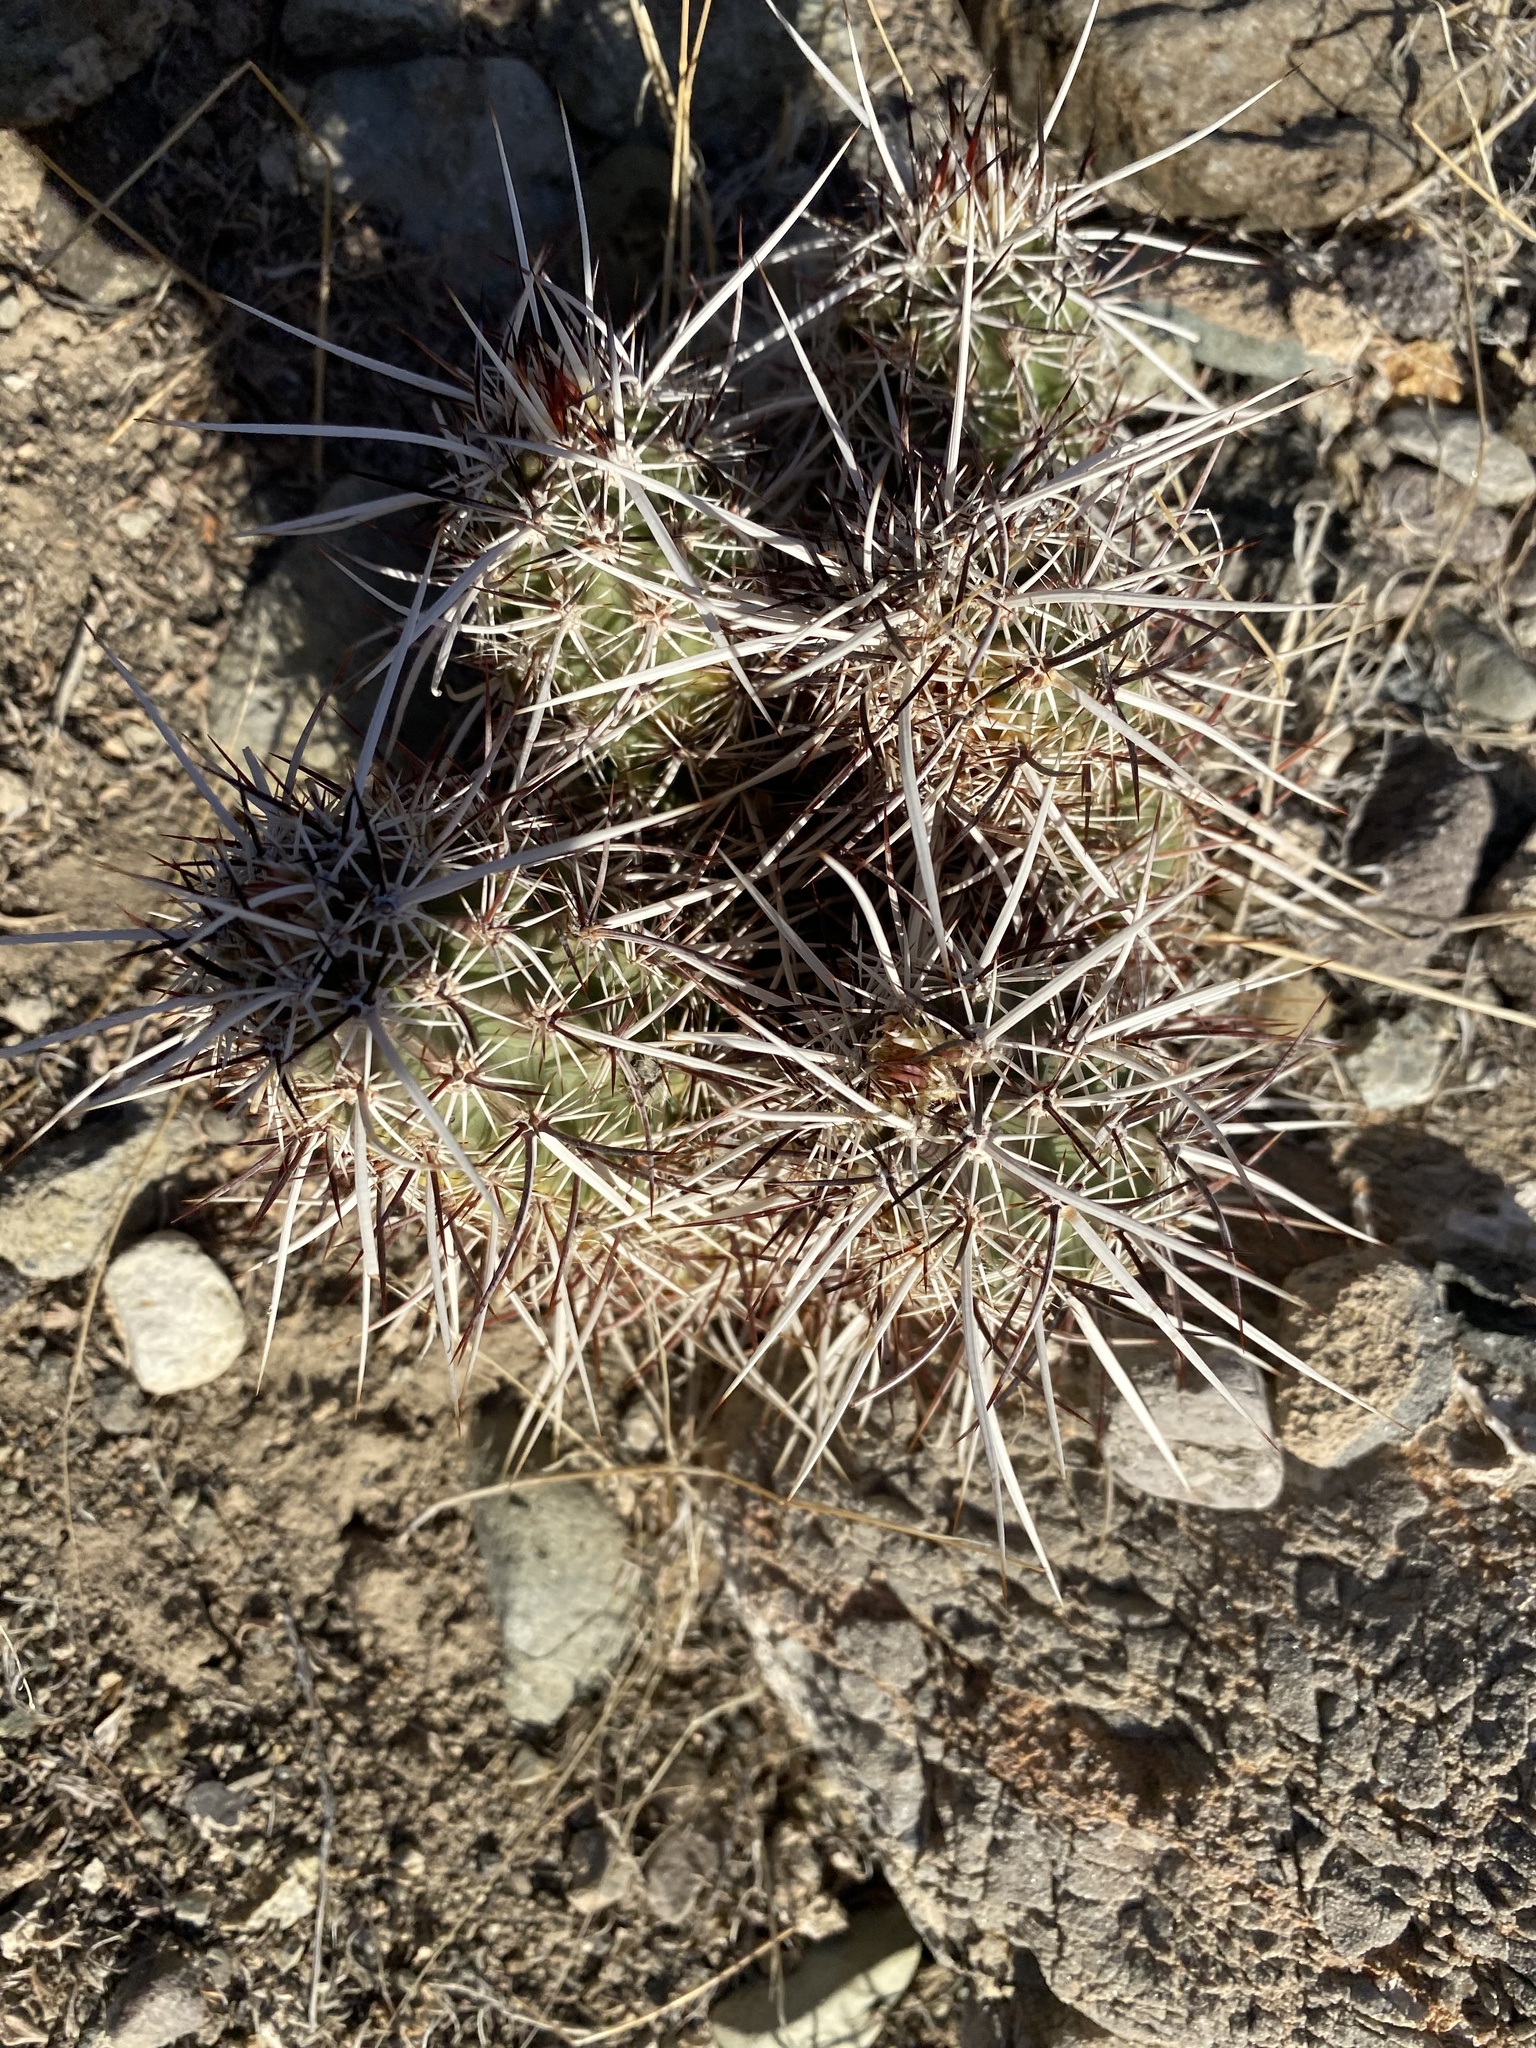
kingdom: Plantae
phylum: Tracheophyta
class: Magnoliopsida
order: Caryophyllales
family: Cactaceae
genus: Echinocereus
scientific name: Echinocereus engelmannii
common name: Engelmann's hedgehog cactus
